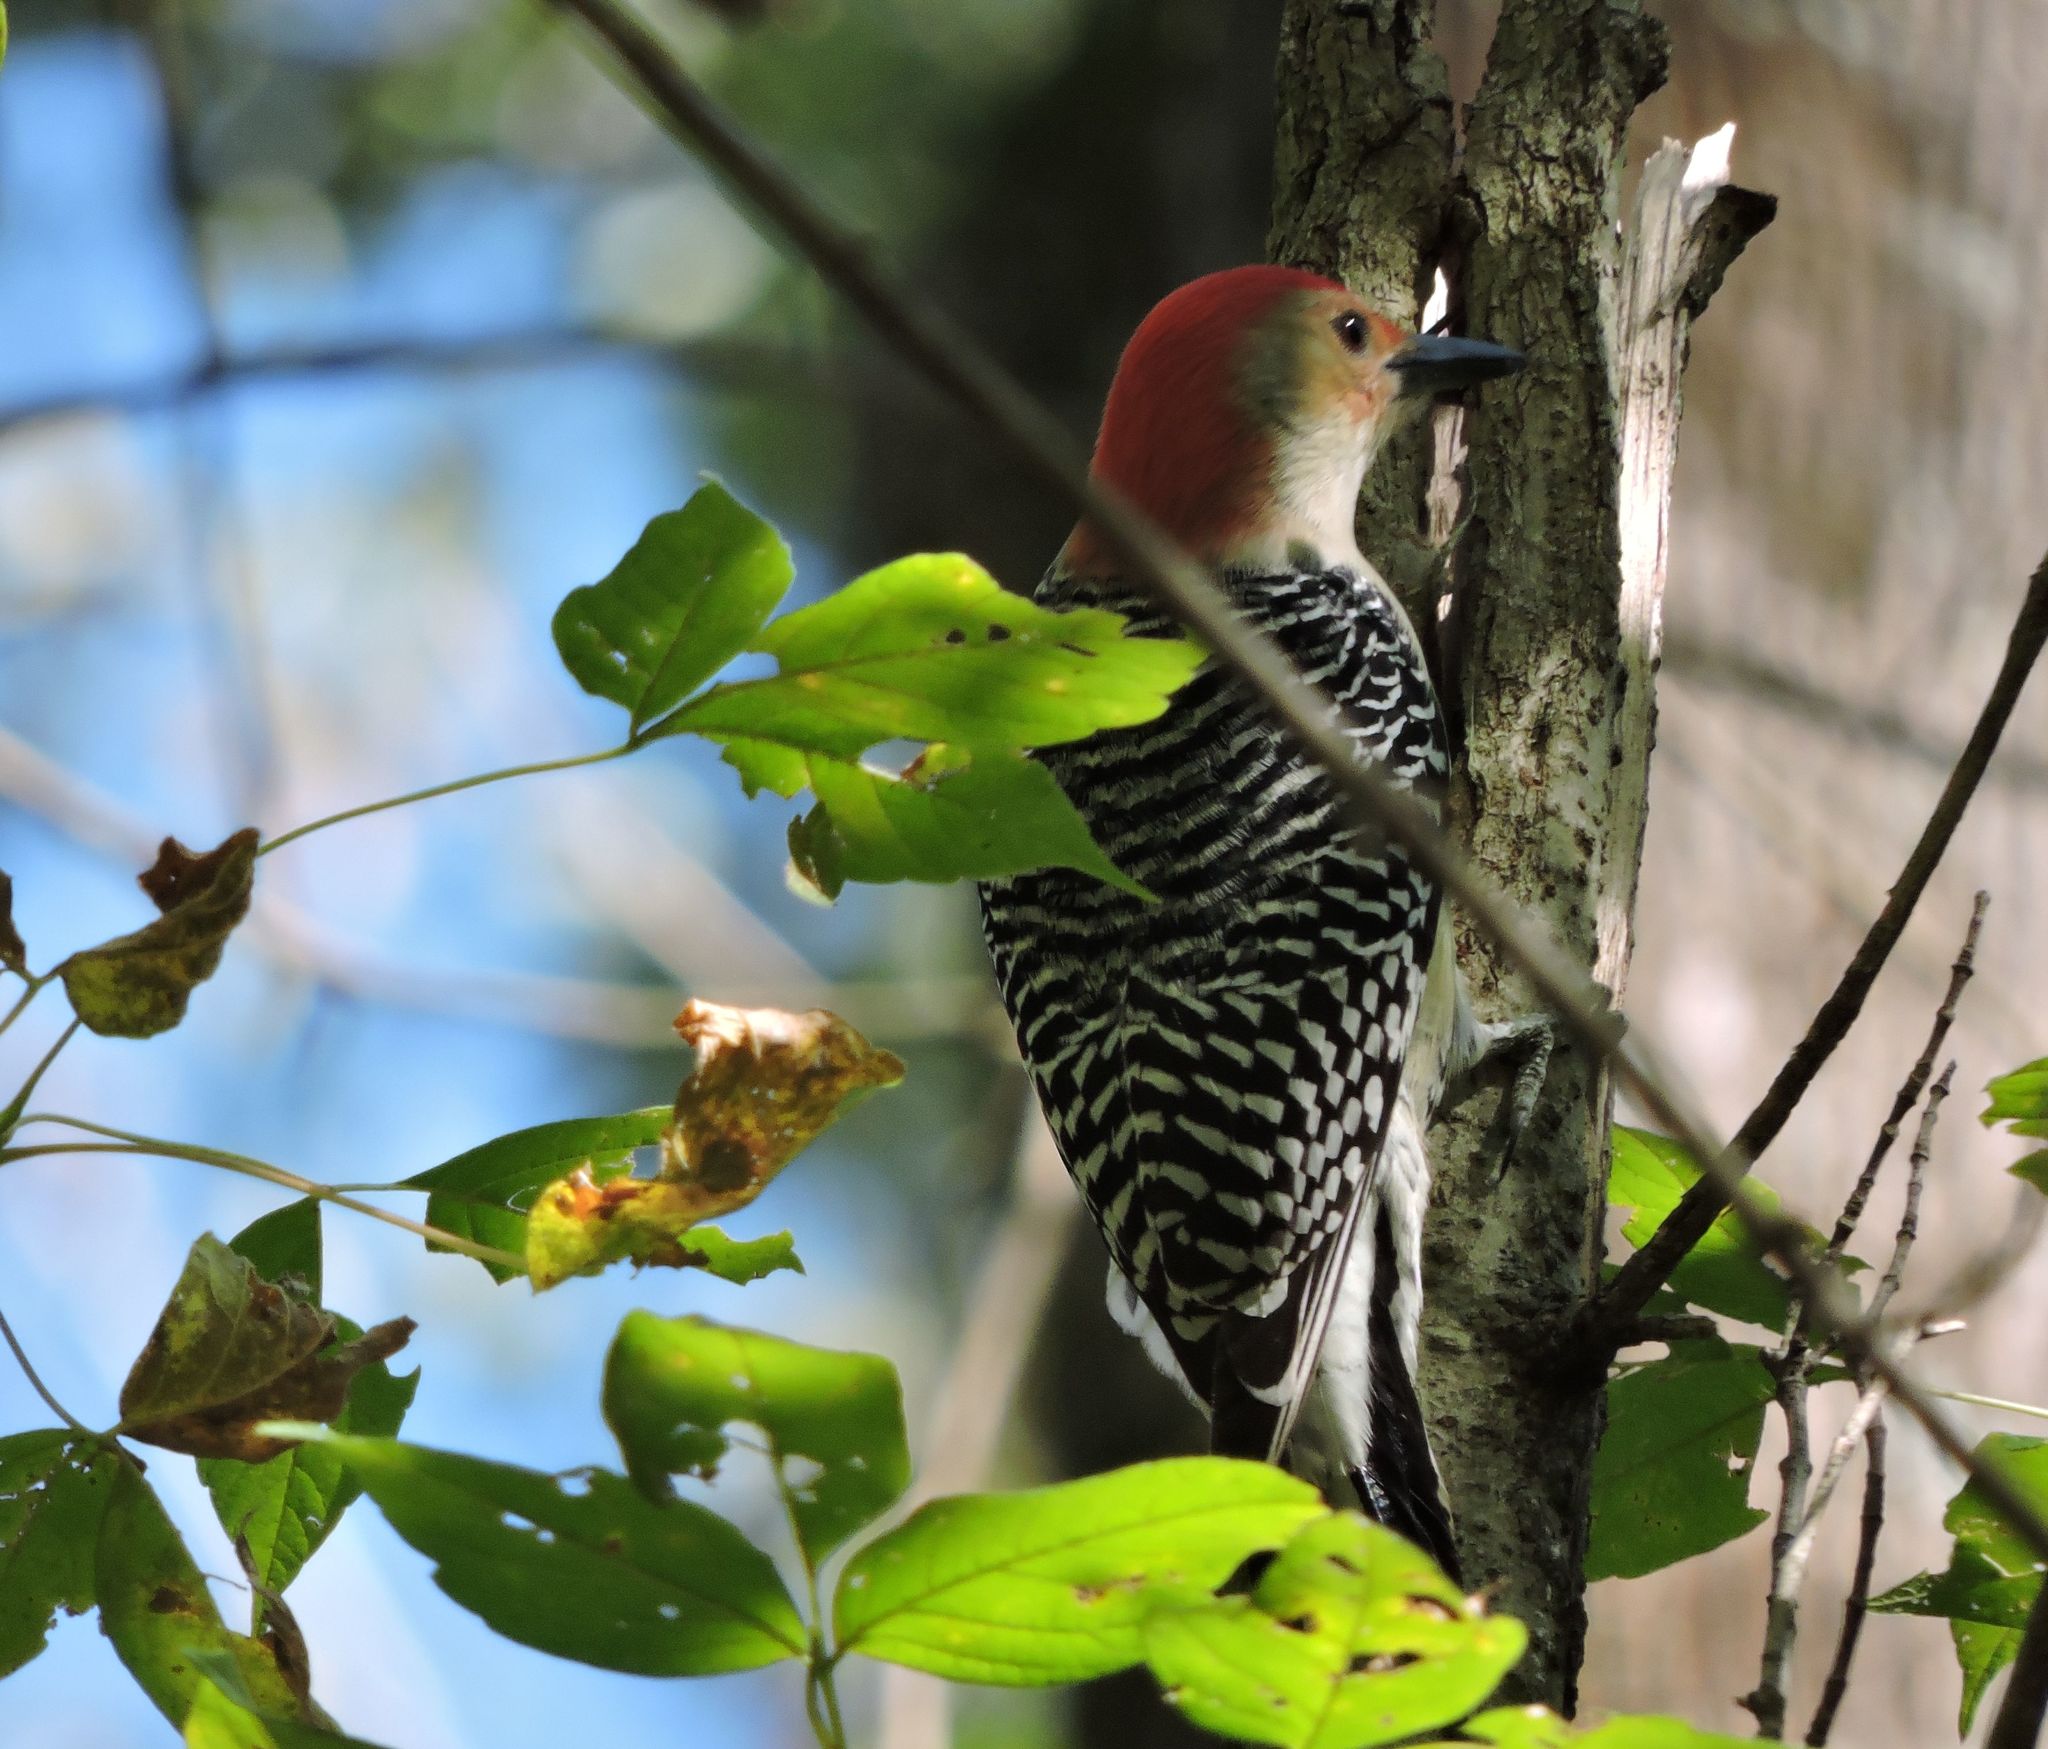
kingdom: Animalia
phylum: Chordata
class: Aves
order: Piciformes
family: Picidae
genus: Melanerpes
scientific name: Melanerpes carolinus
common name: Red-bellied woodpecker
